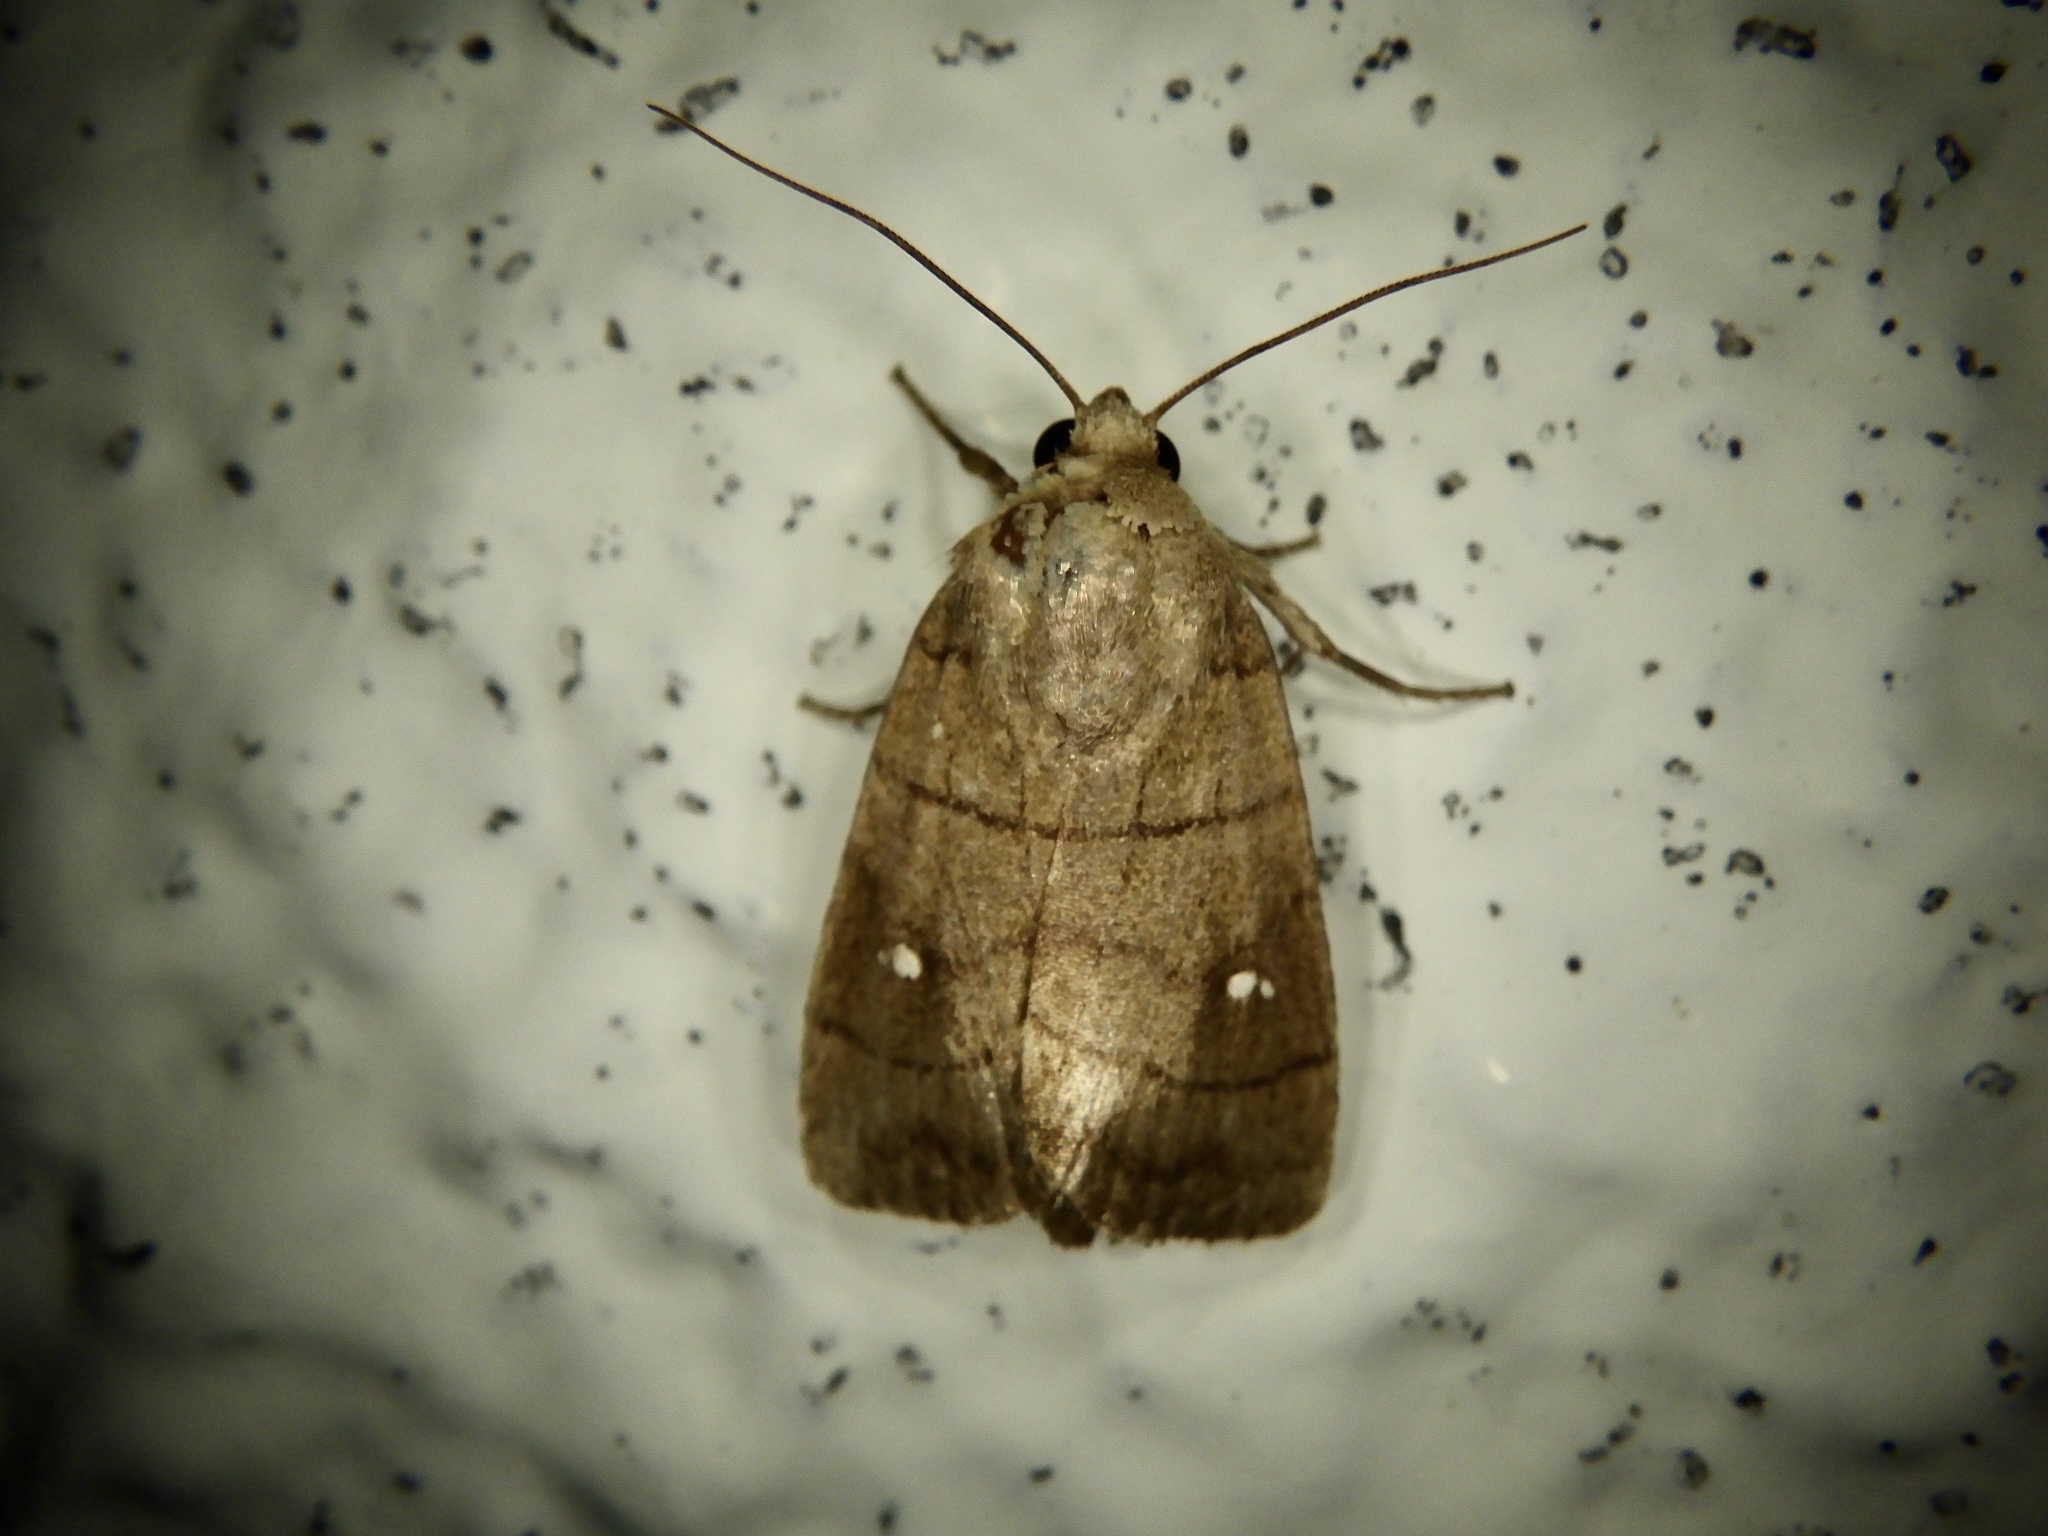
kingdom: Animalia
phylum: Arthropoda
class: Insecta
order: Lepidoptera
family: Noctuidae
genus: Proxenus
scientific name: Proxenus
